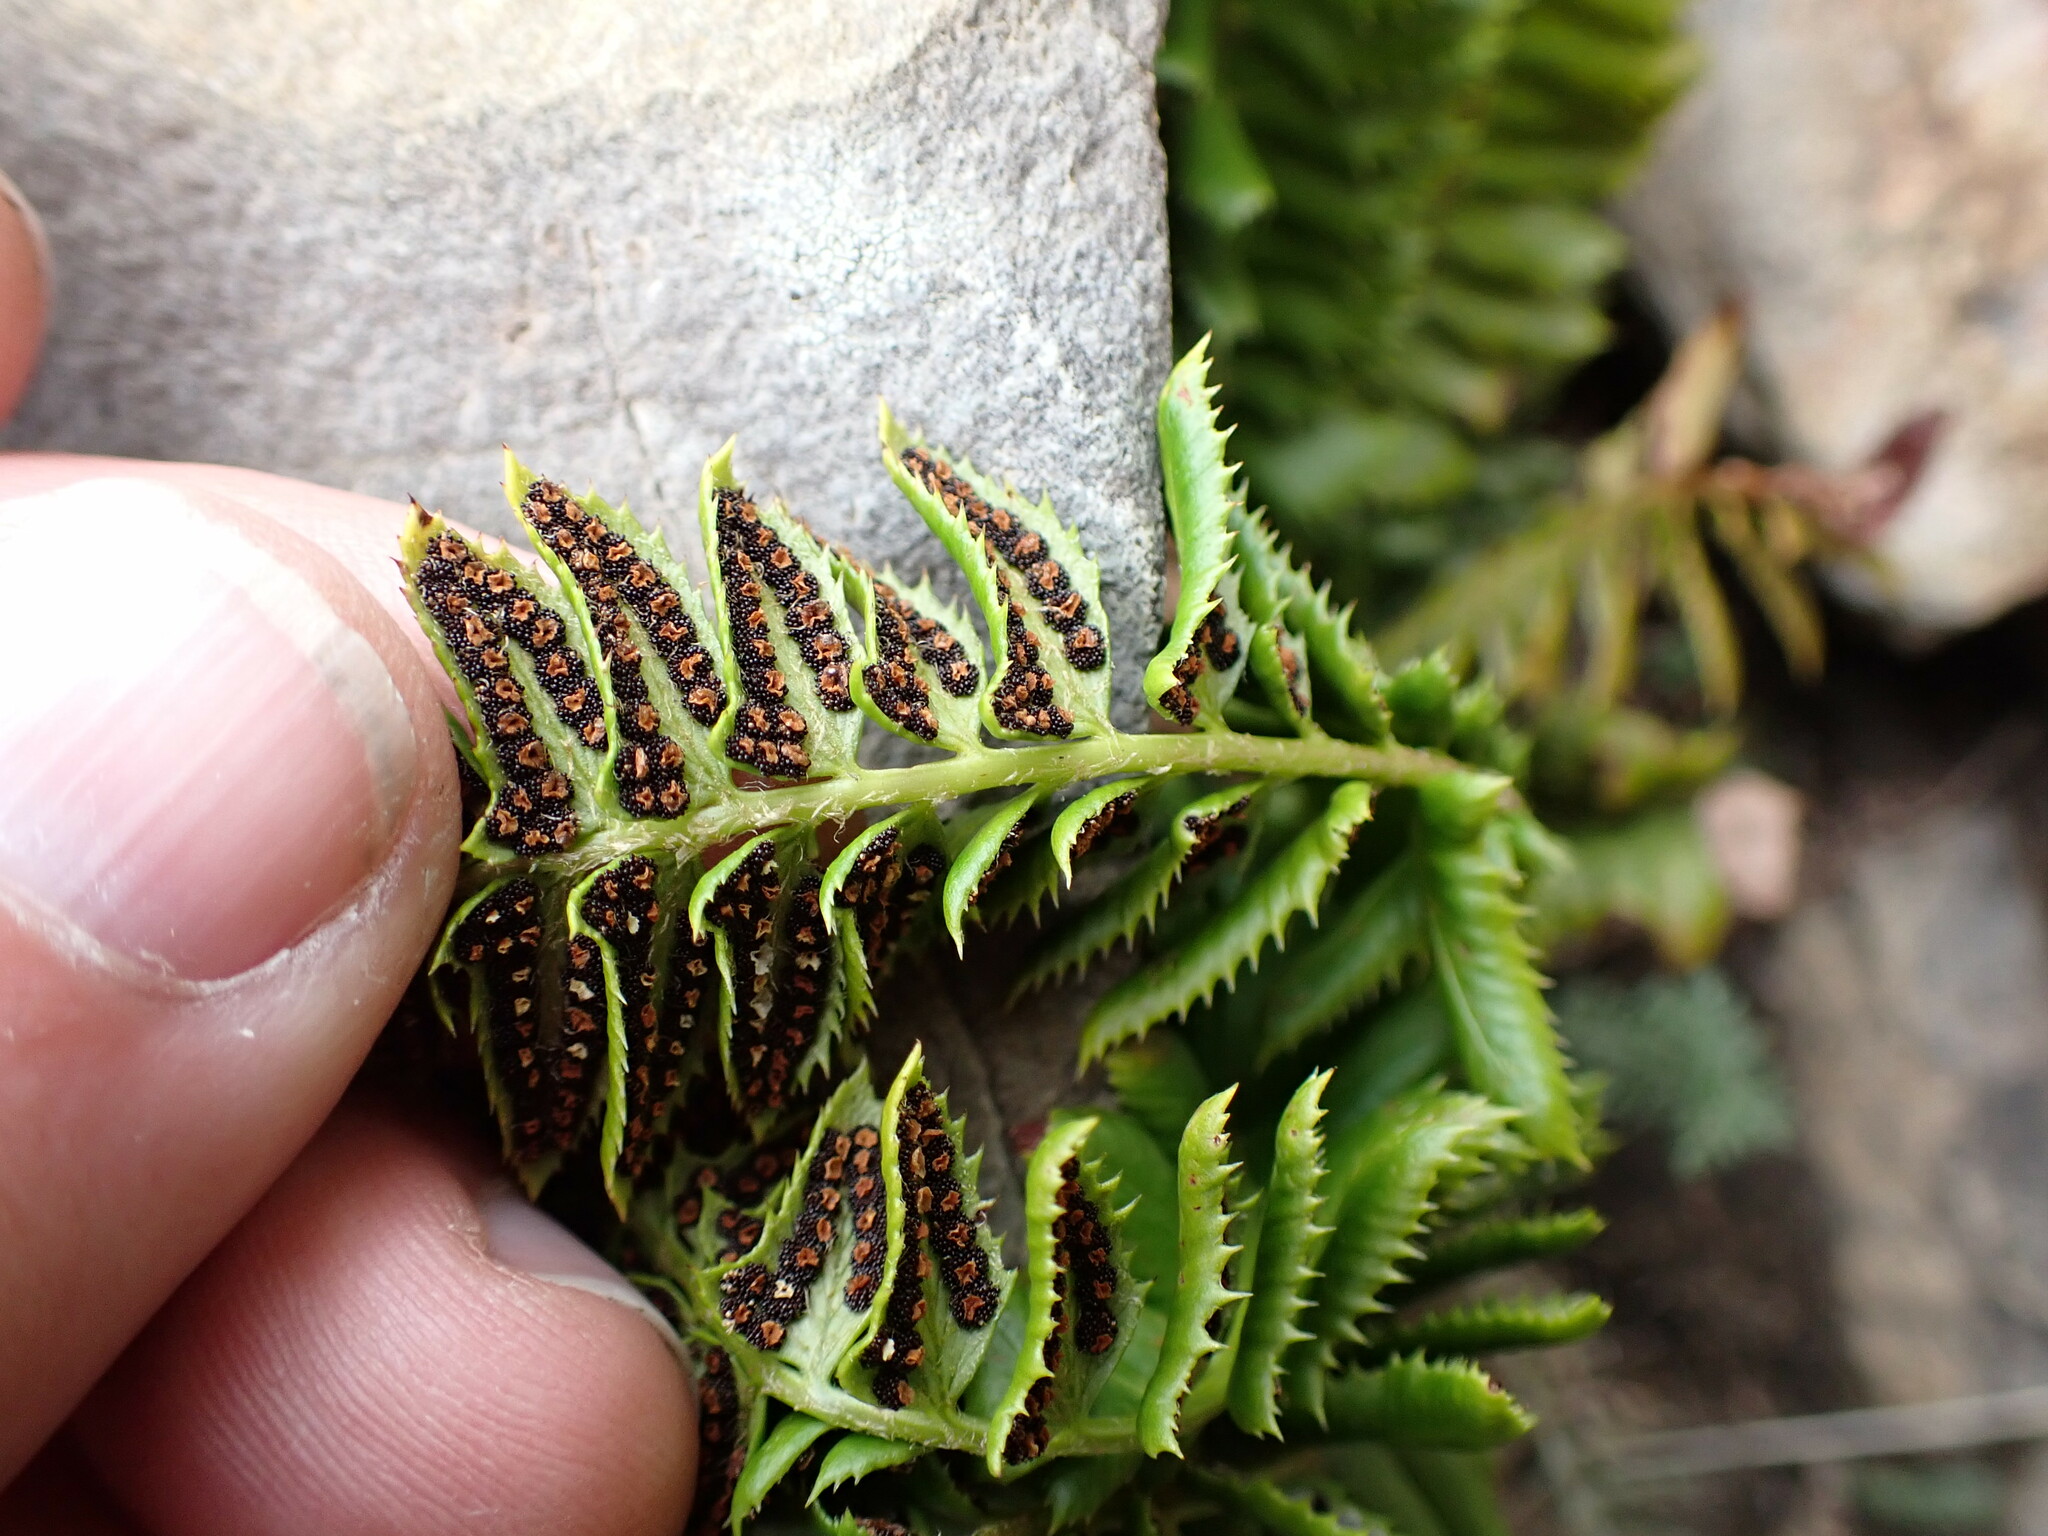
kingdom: Plantae
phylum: Tracheophyta
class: Polypodiopsida
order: Polypodiales
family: Dryopteridaceae
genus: Polystichum
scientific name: Polystichum lonchitis
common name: Holly fern
